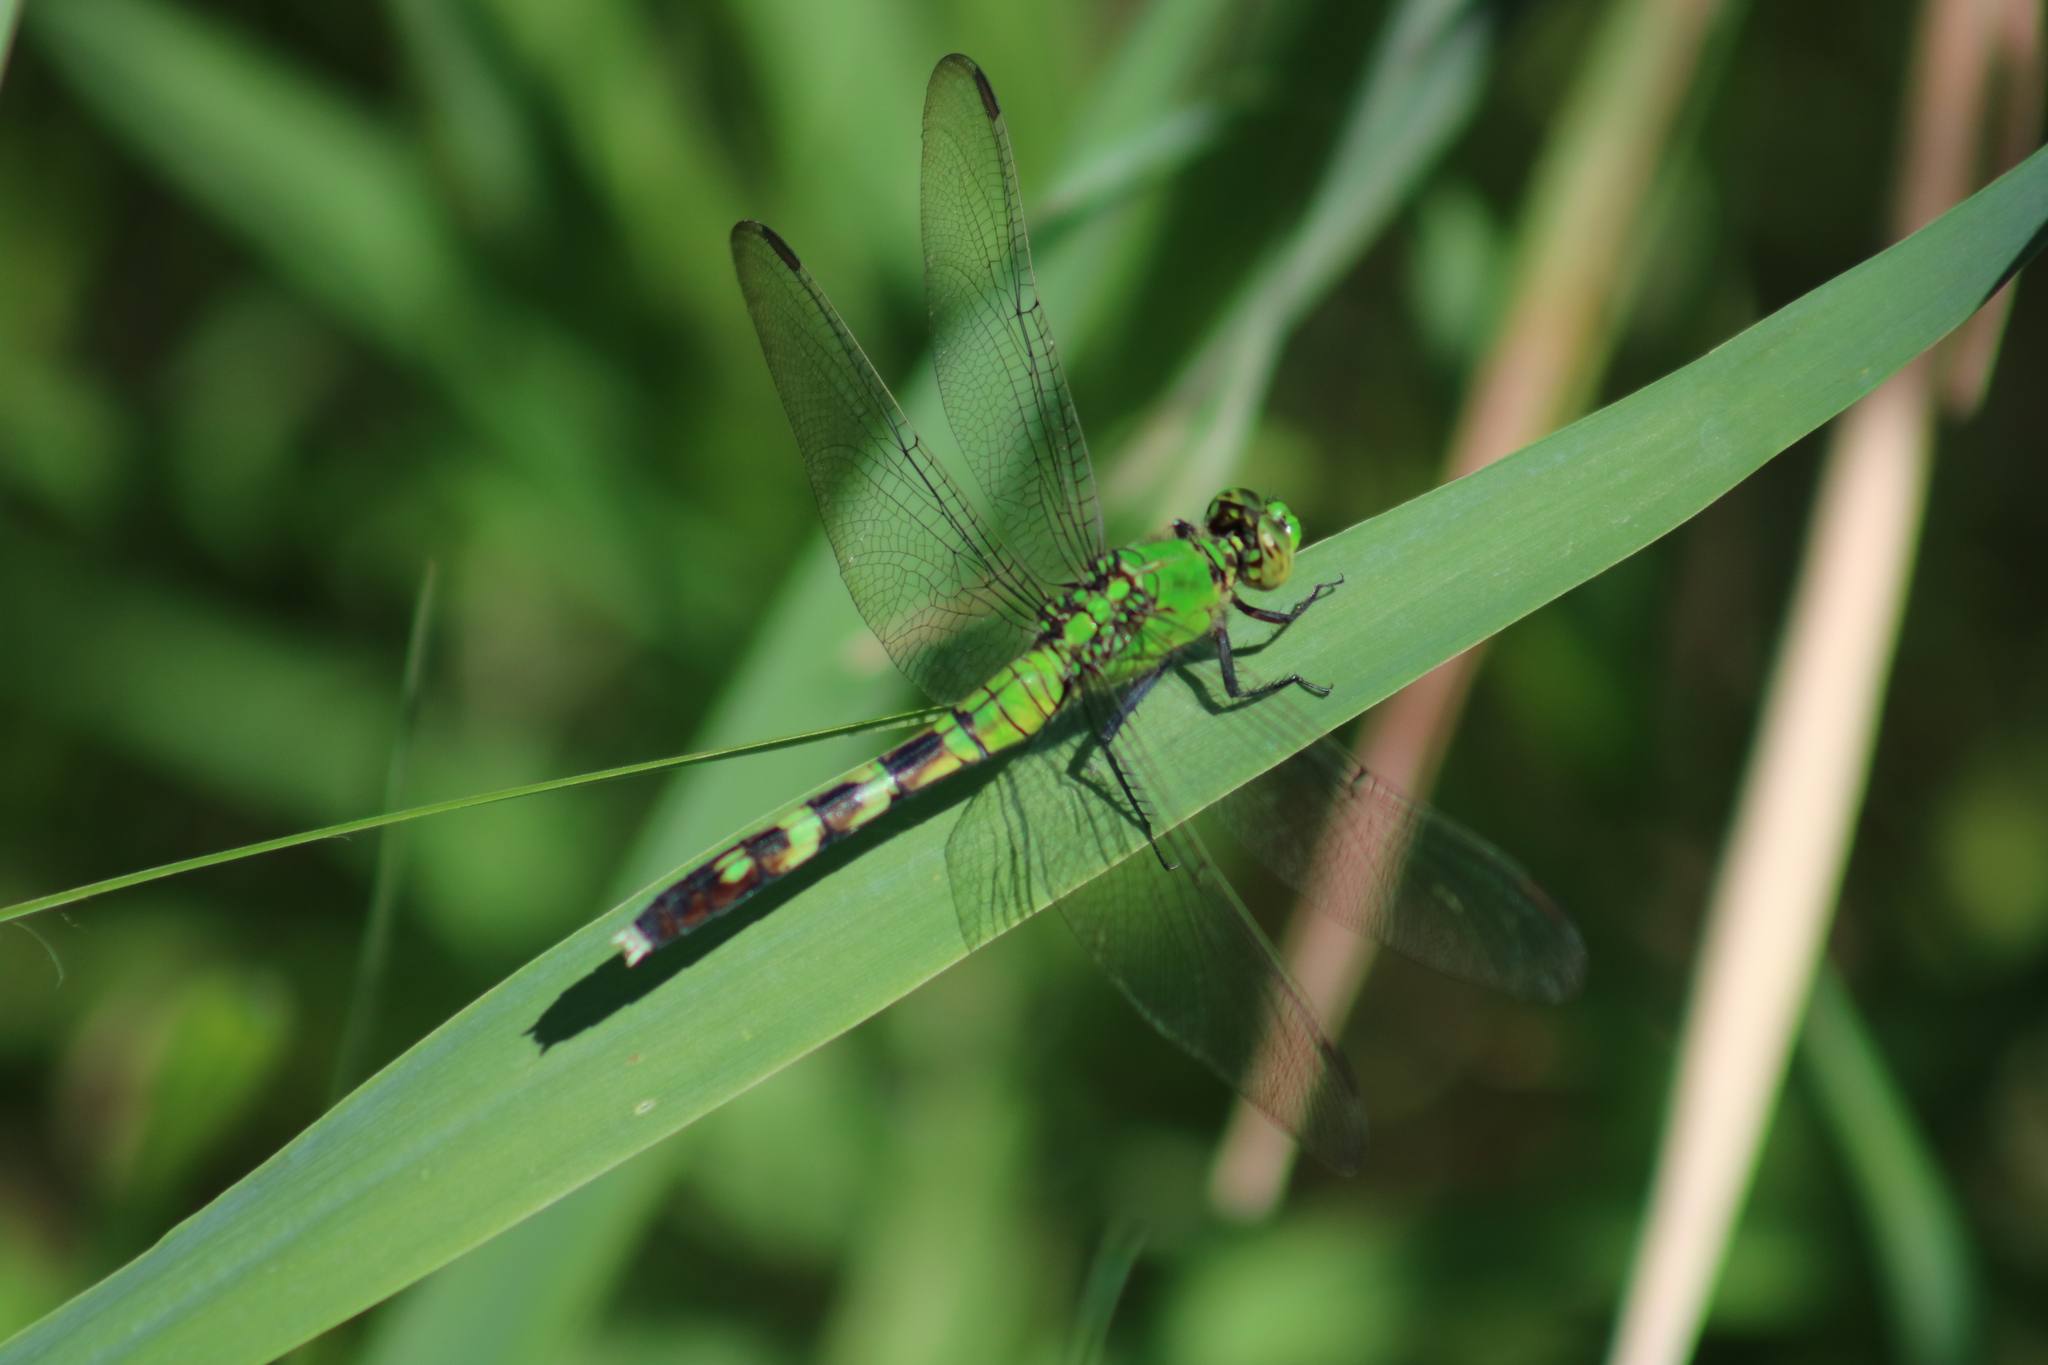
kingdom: Animalia
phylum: Arthropoda
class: Insecta
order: Odonata
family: Libellulidae
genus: Erythemis
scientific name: Erythemis simplicicollis
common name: Eastern pondhawk
